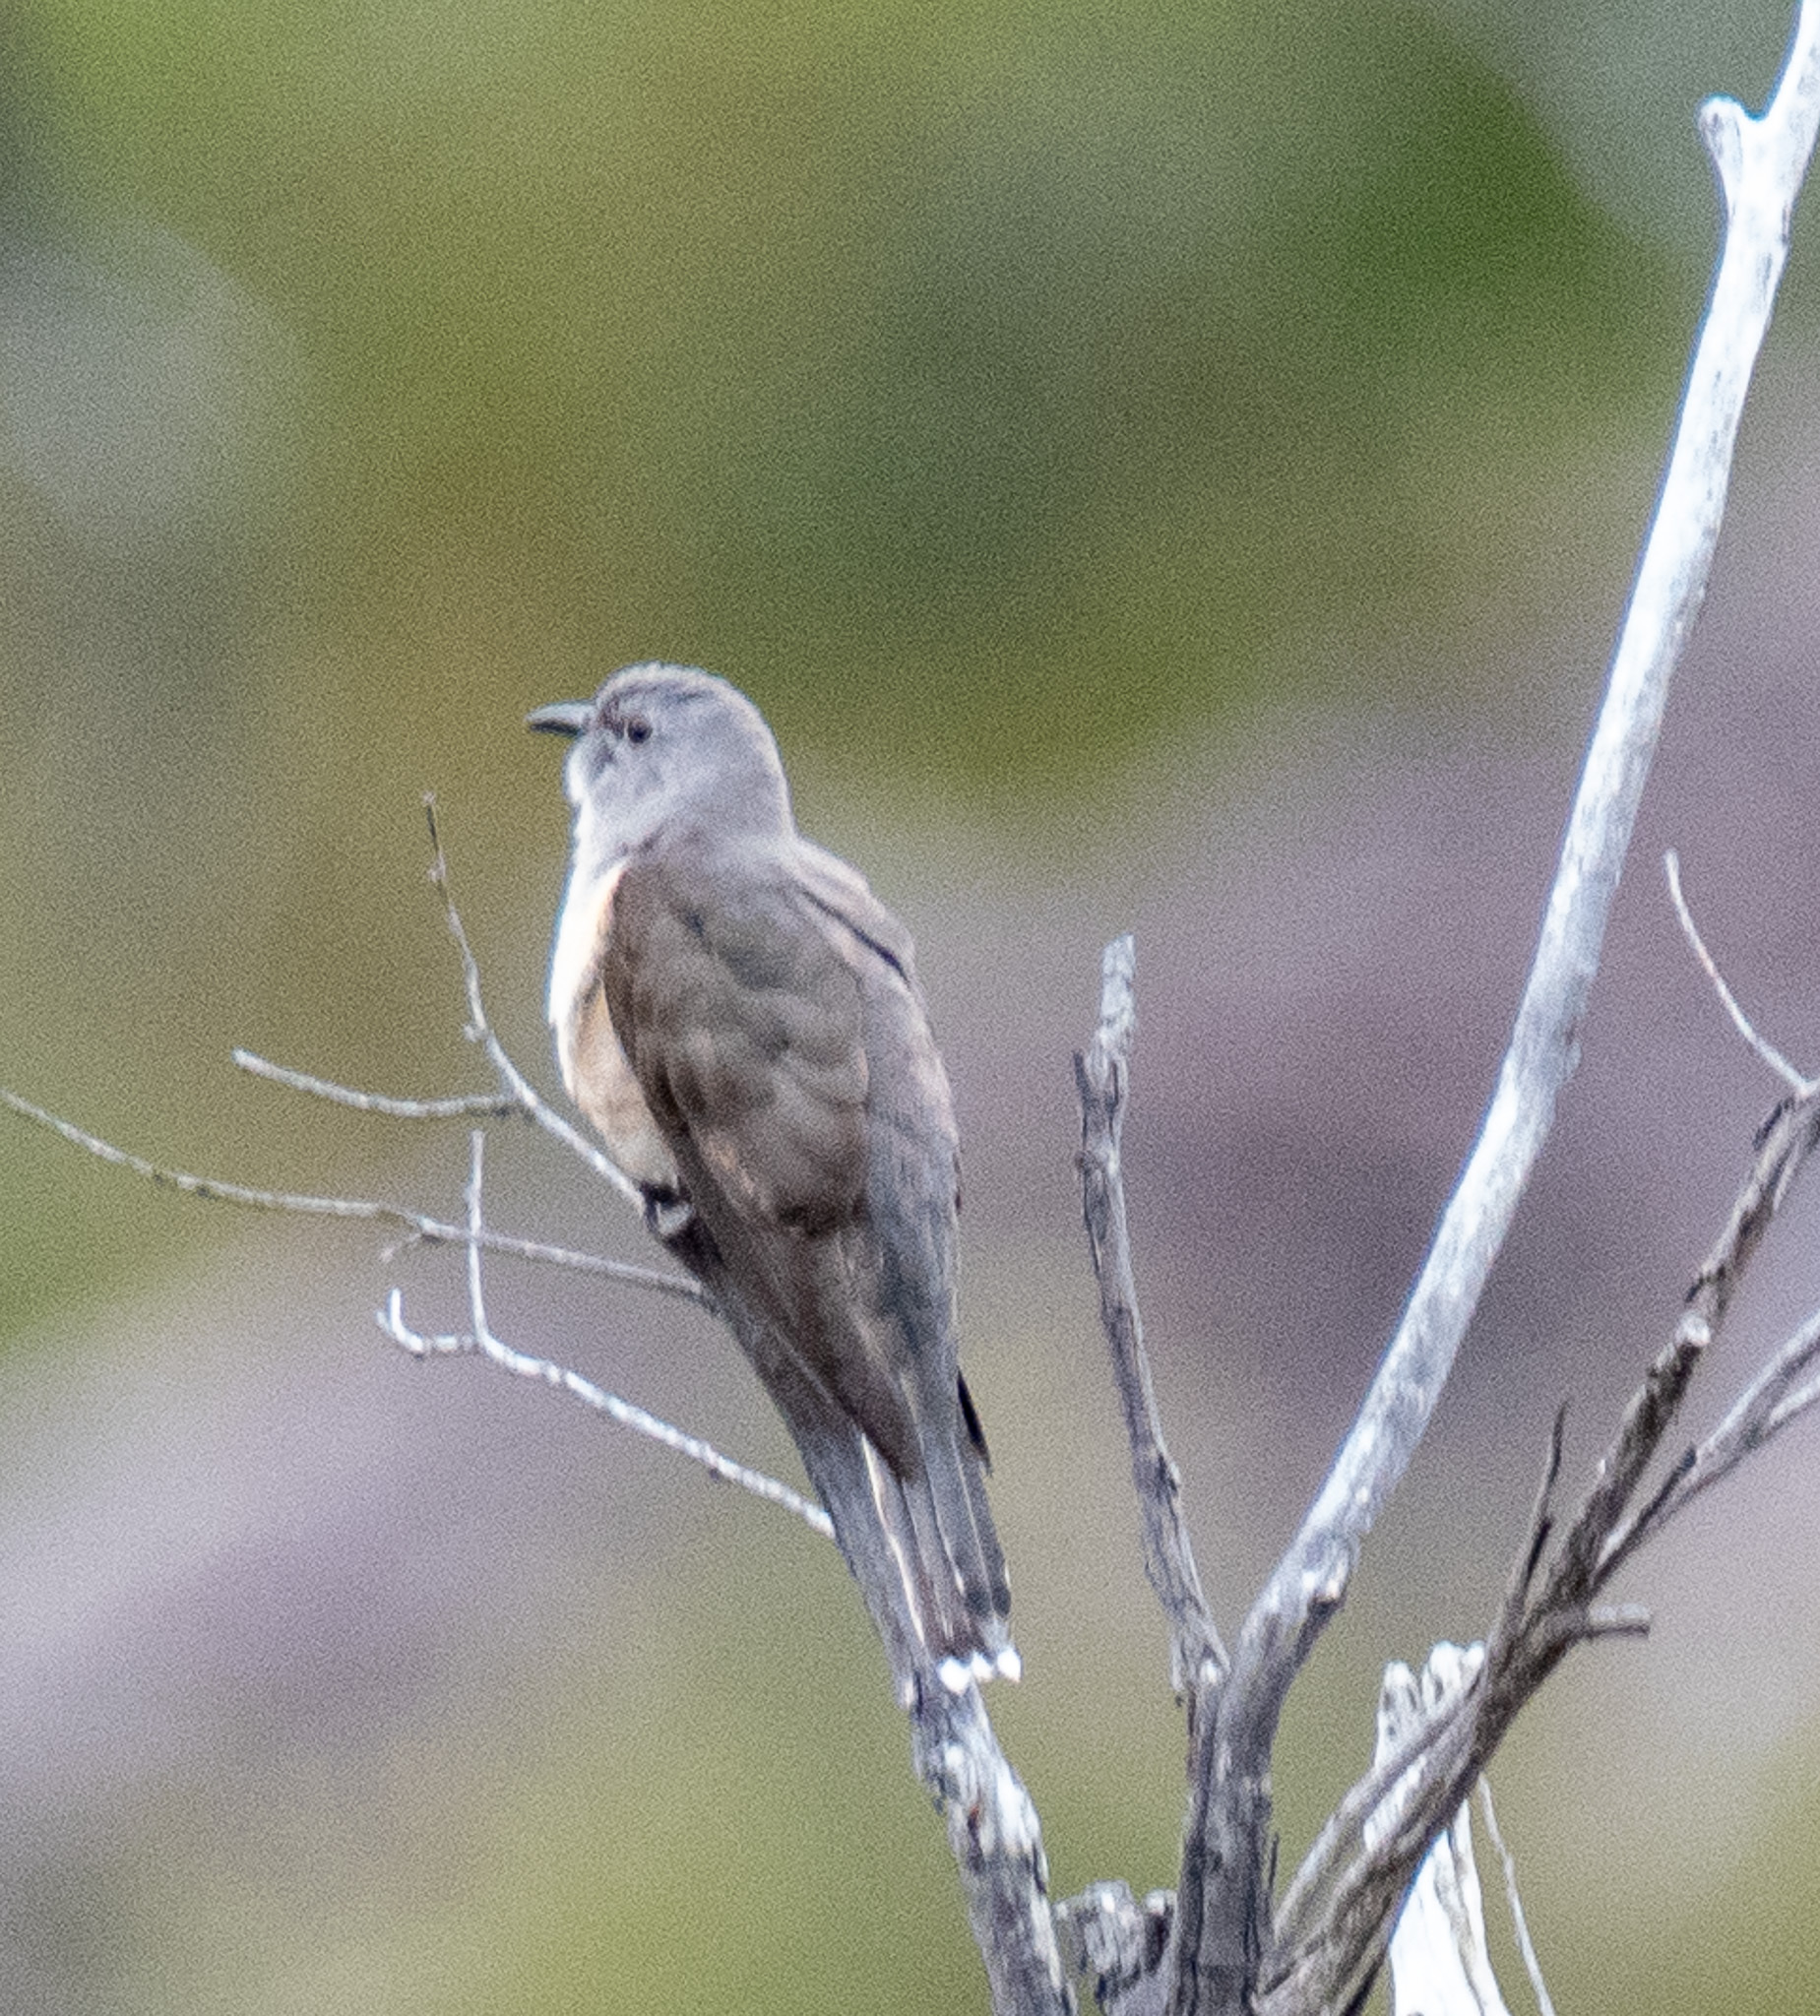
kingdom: Animalia
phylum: Chordata
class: Aves
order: Cuculiformes
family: Cuculidae
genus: Cacomantis
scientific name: Cacomantis variolosus
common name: Brush cuckoo
